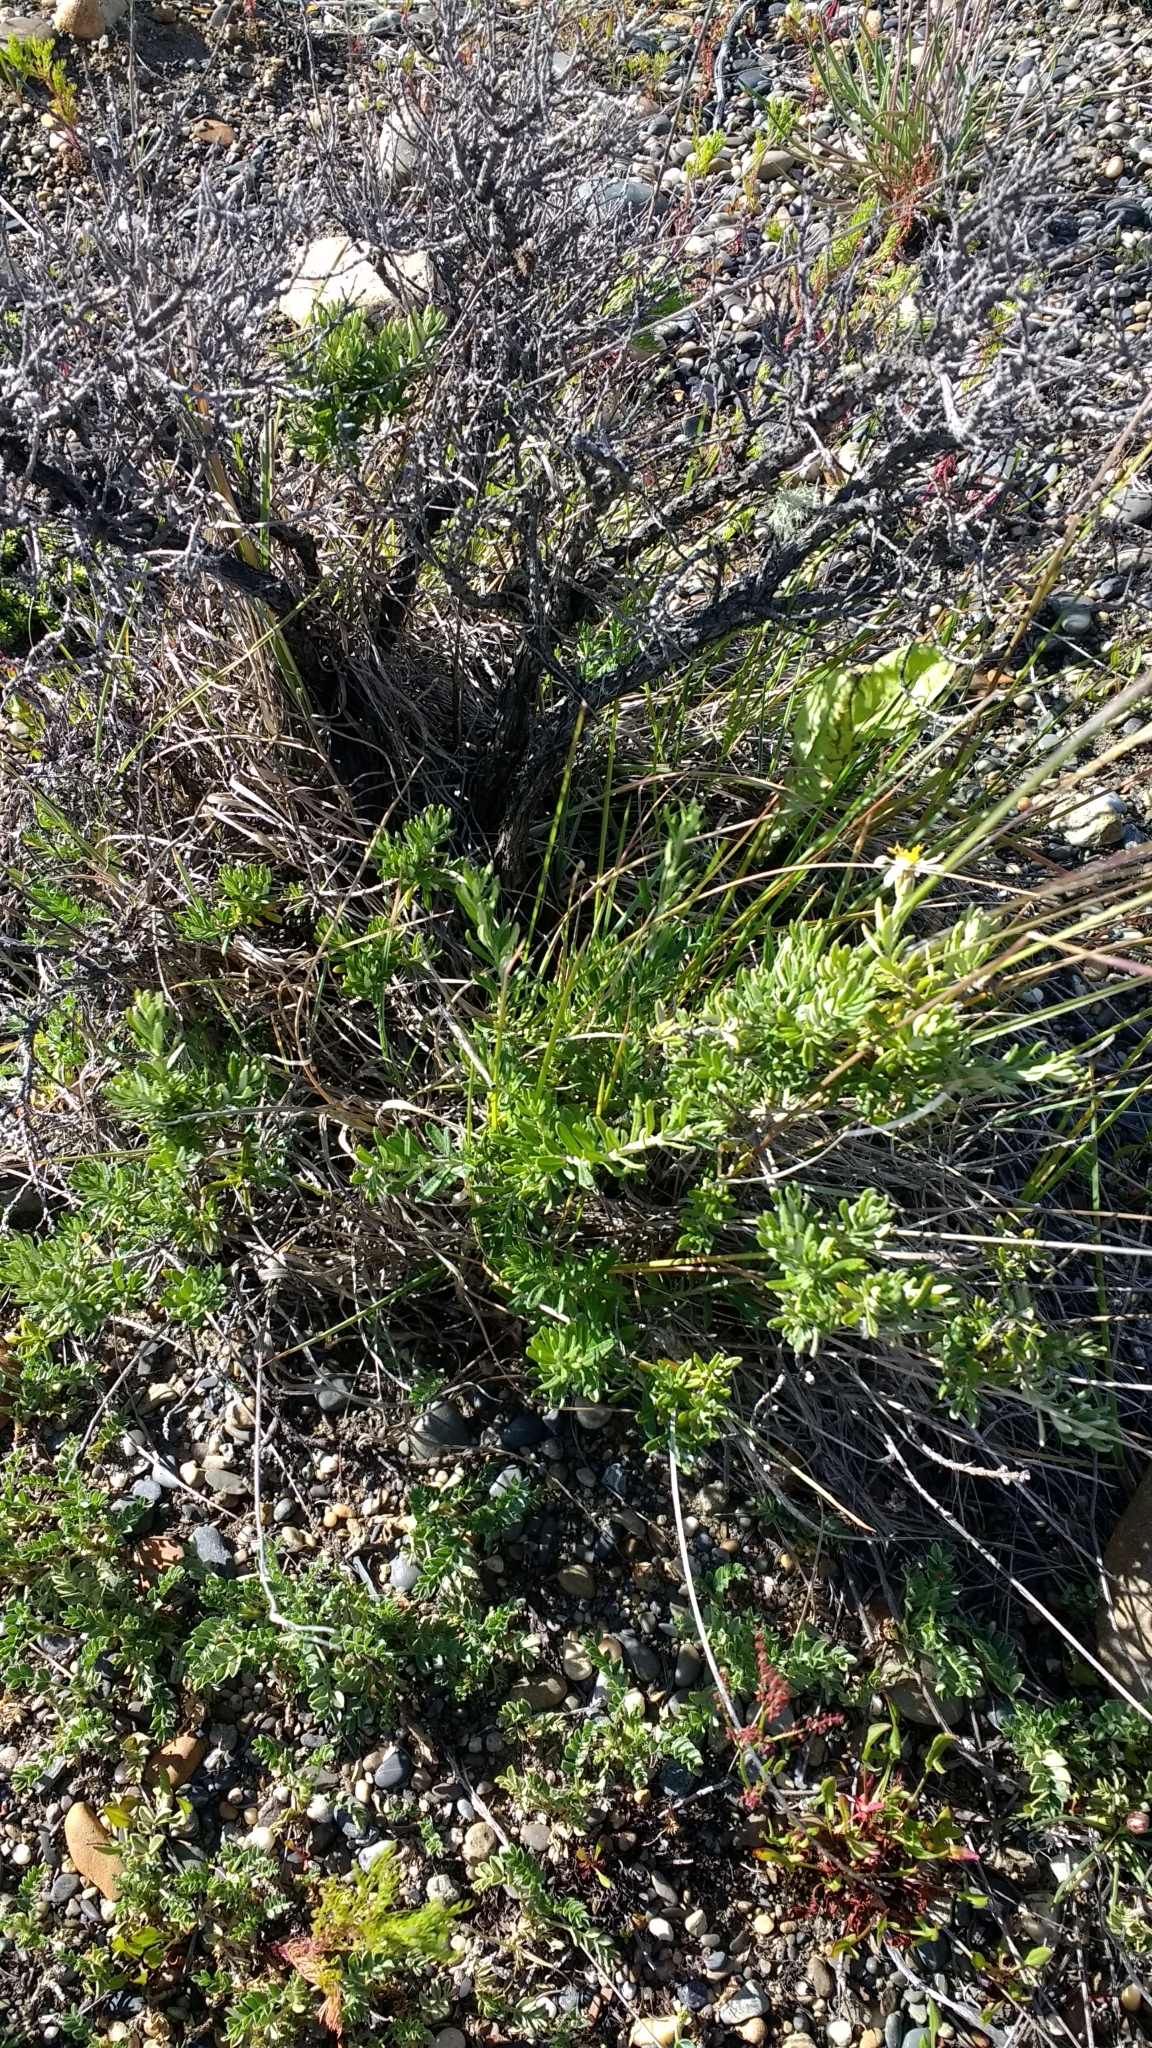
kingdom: Plantae
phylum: Tracheophyta
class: Magnoliopsida
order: Asterales
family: Asteraceae
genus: Chiliotrichum
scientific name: Chiliotrichum diffusum
